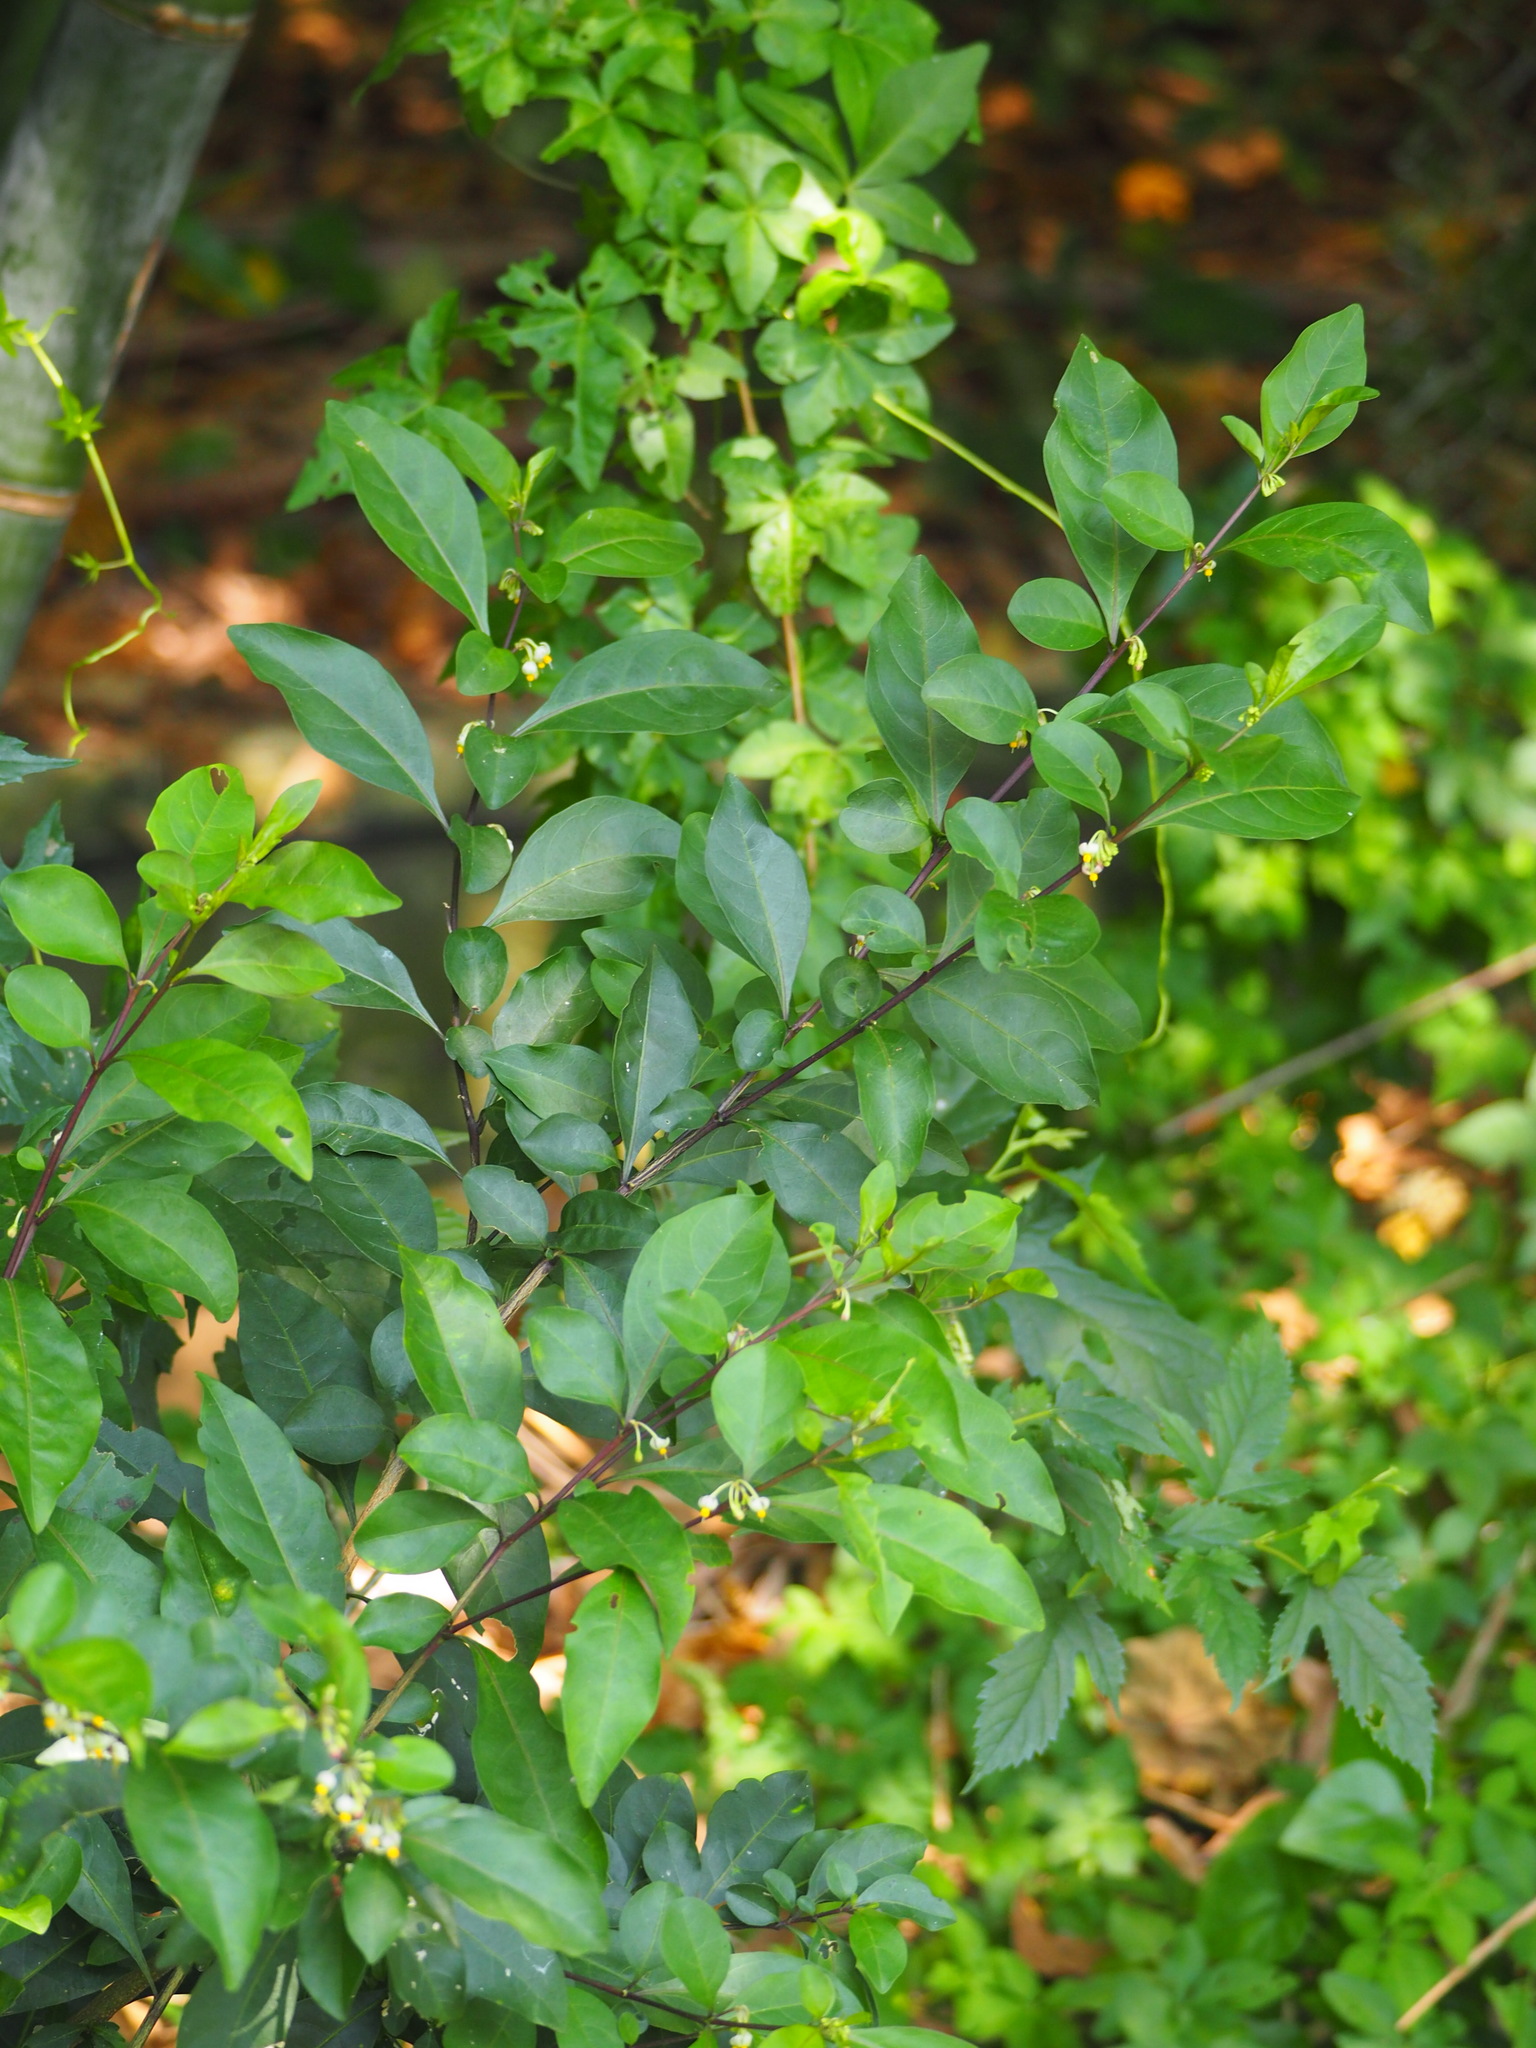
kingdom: Plantae
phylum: Tracheophyta
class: Magnoliopsida
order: Solanales
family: Solanaceae
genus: Solanum
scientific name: Solanum diphyllum
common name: Twoleaf nightshade
